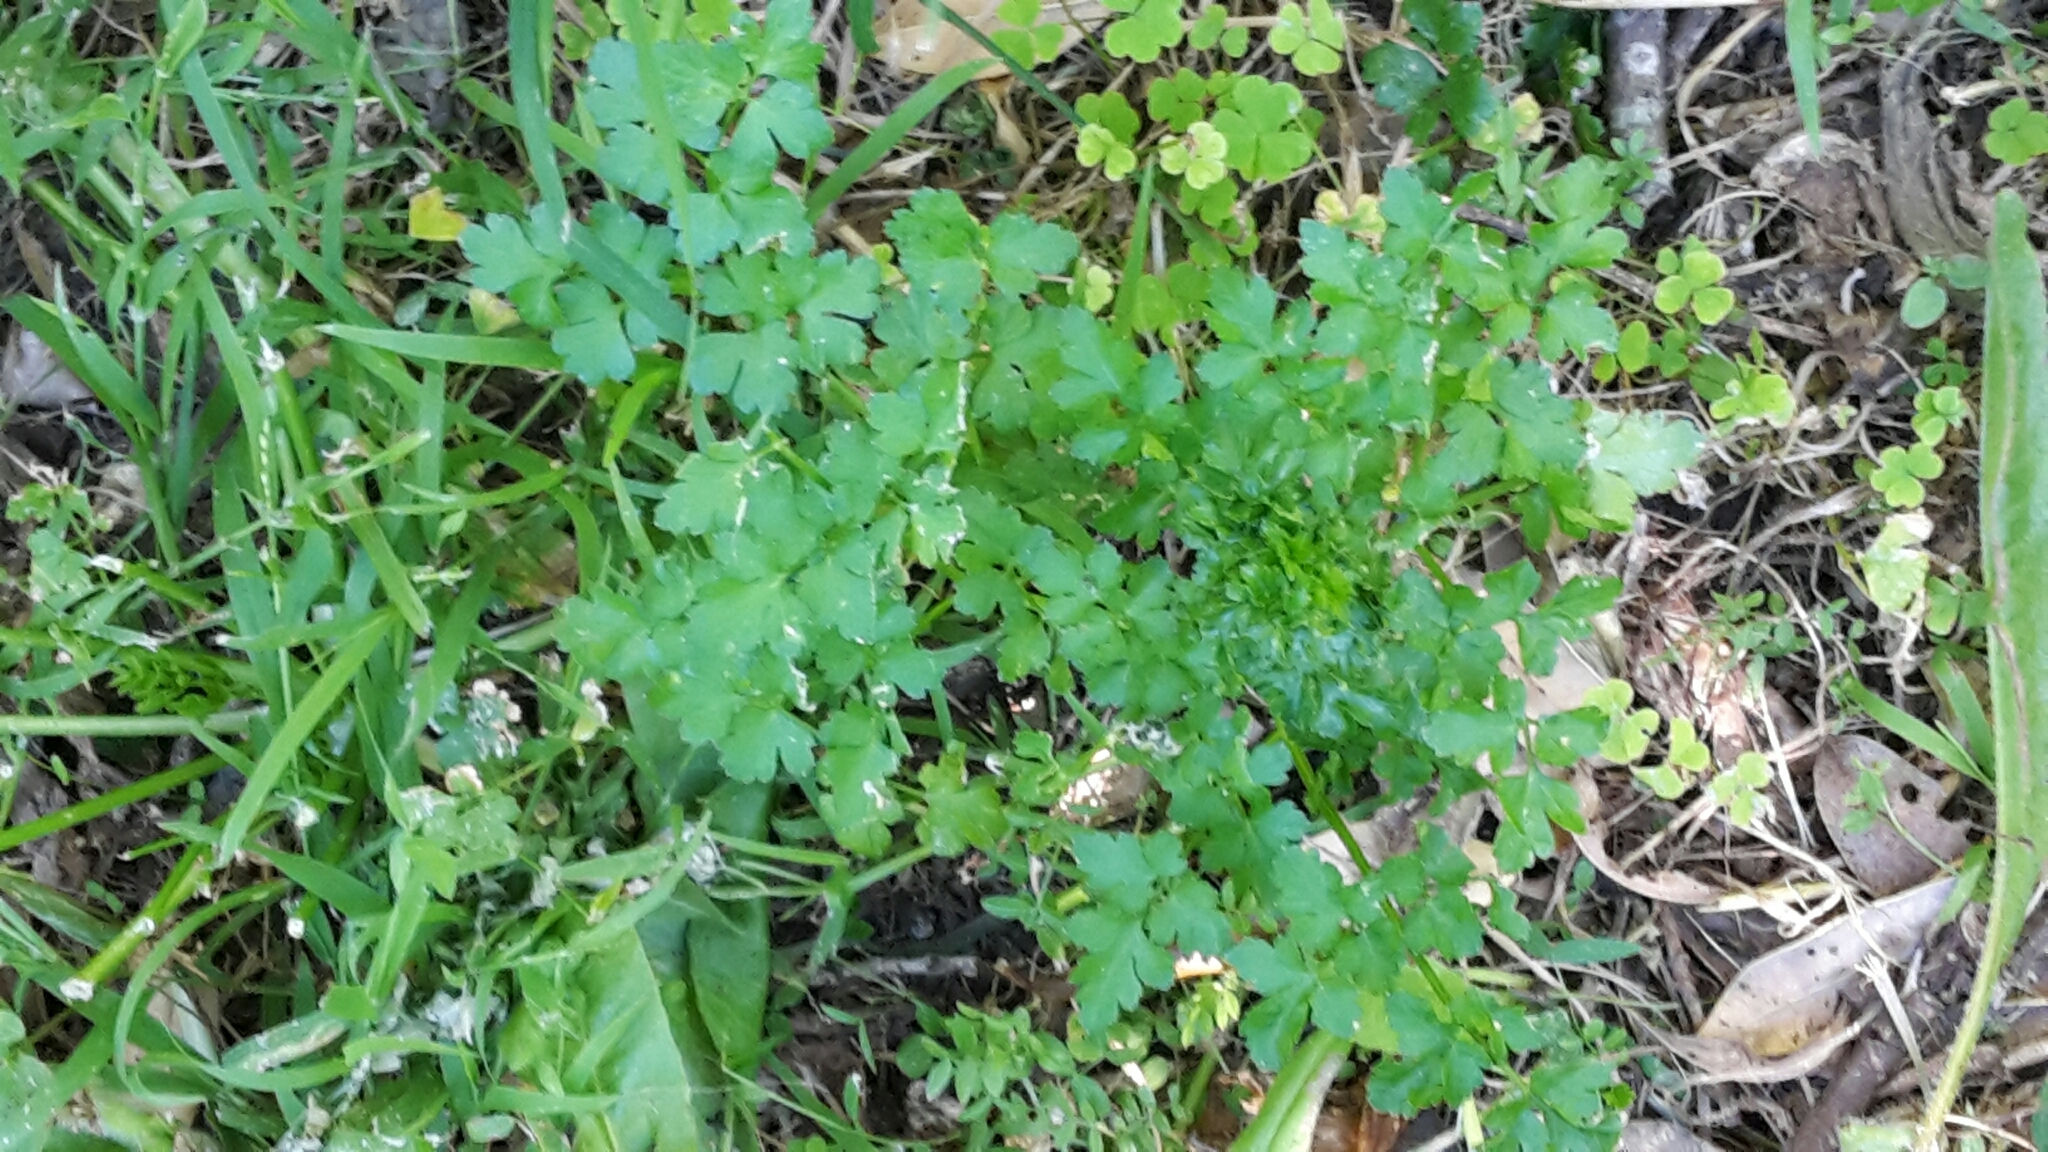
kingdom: Plantae
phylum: Tracheophyta
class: Magnoliopsida
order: Apiales
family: Apiaceae
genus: Petroselinum
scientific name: Petroselinum crispum
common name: Parsley
